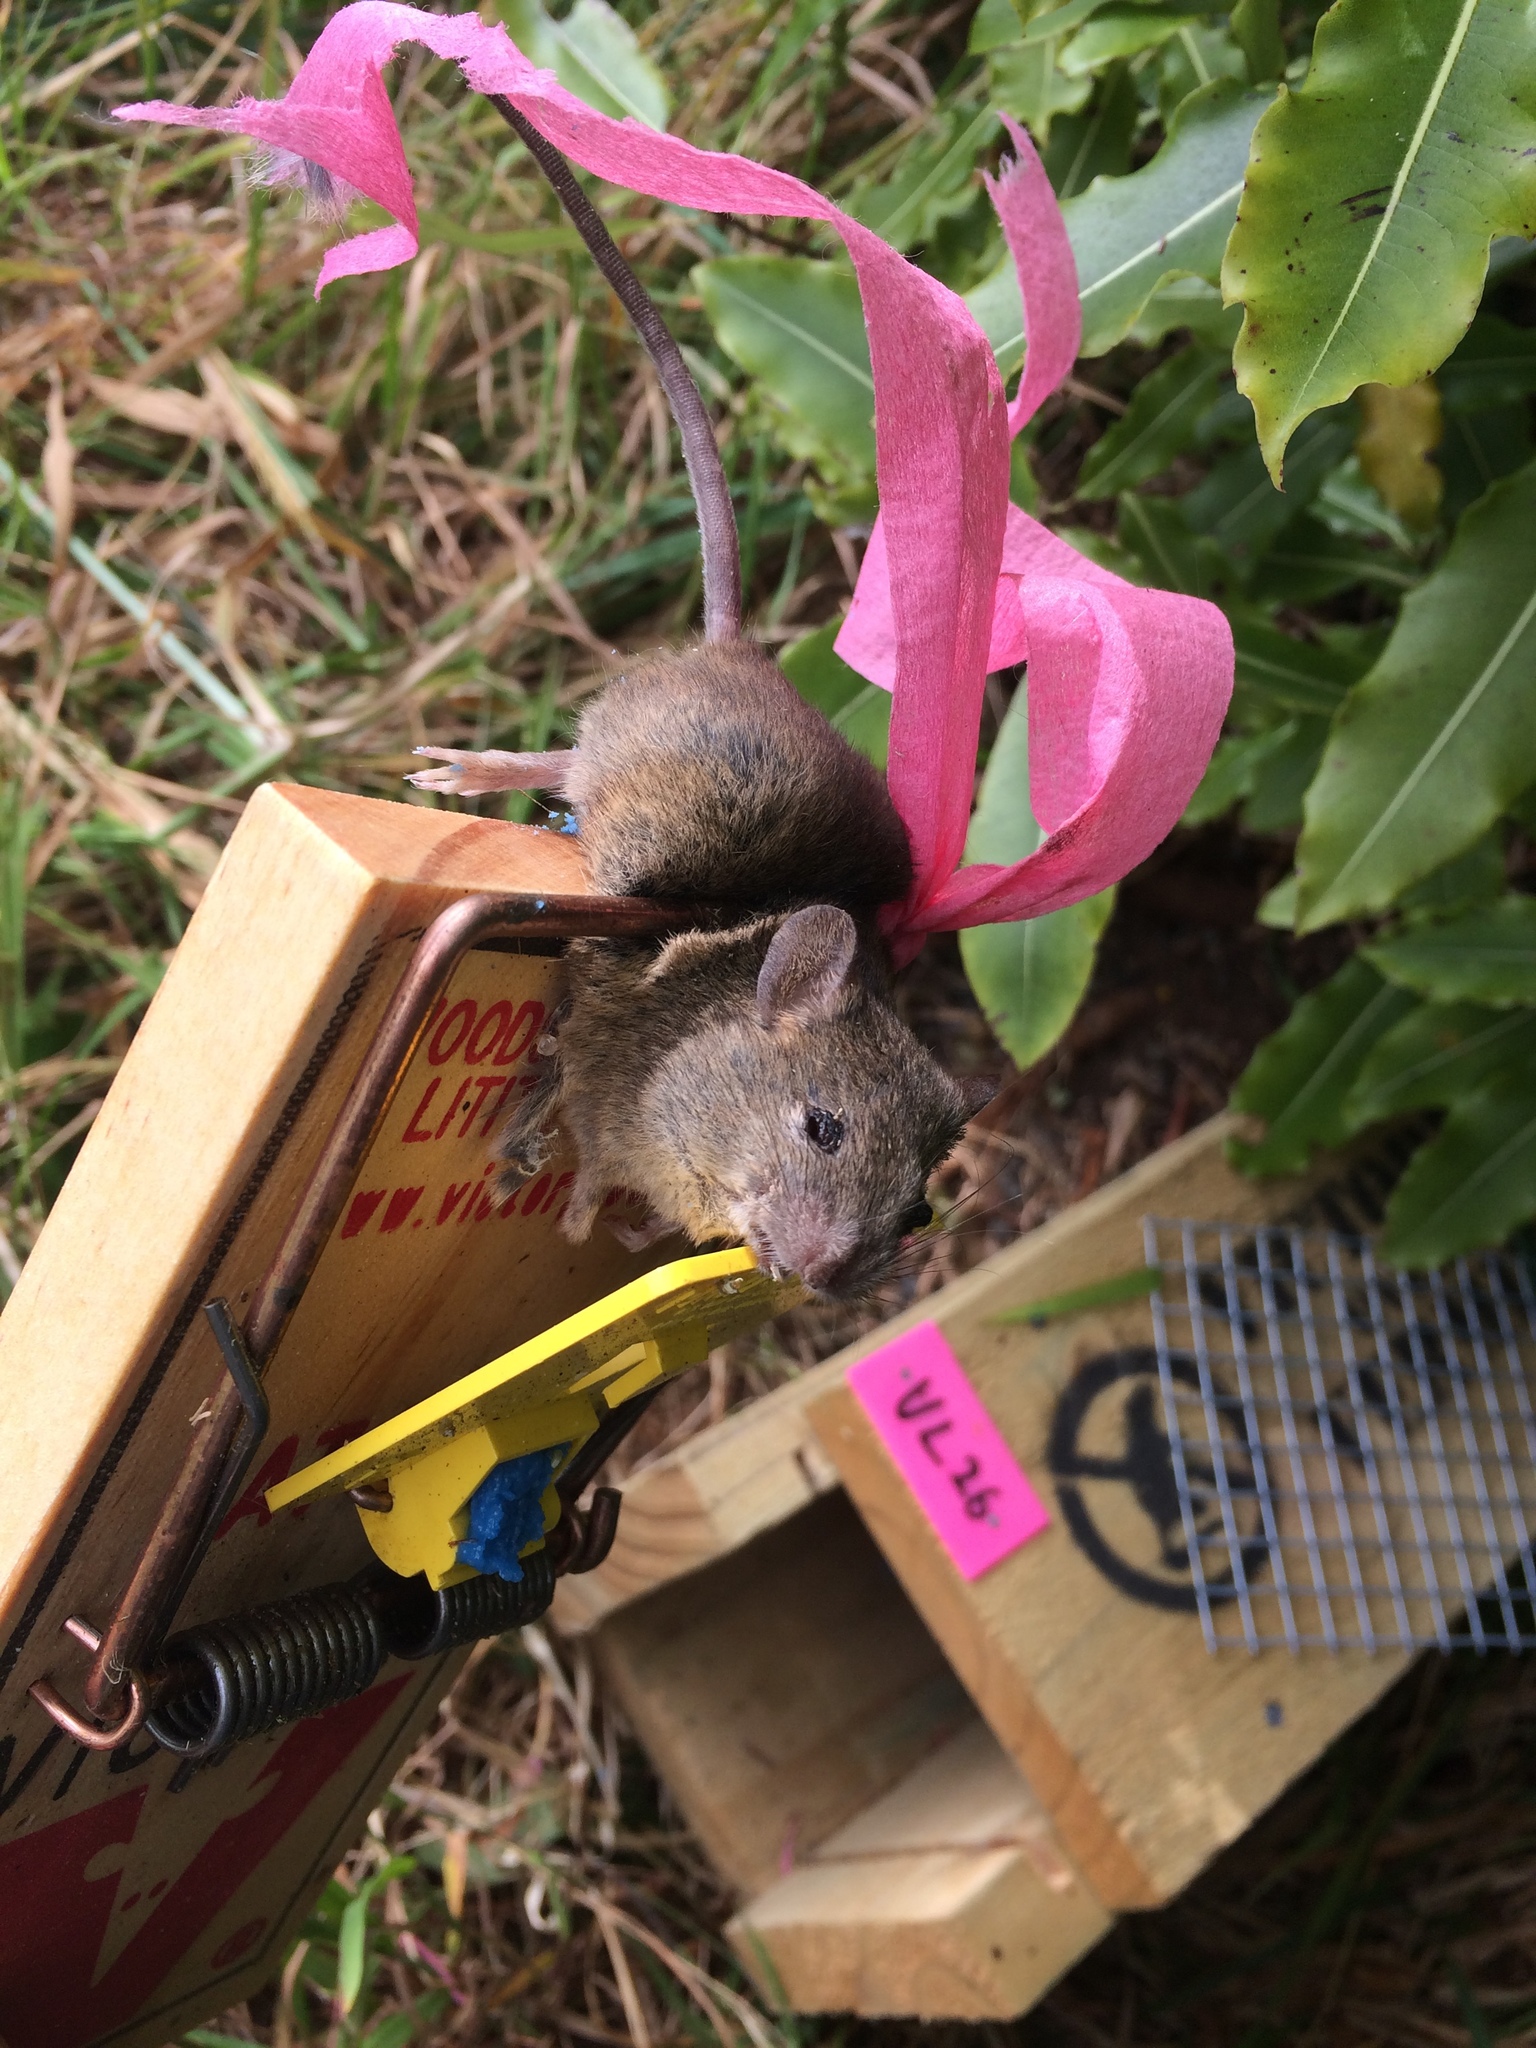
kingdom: Animalia
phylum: Chordata
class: Mammalia
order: Rodentia
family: Muridae
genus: Mus
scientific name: Mus musculus
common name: House mouse
